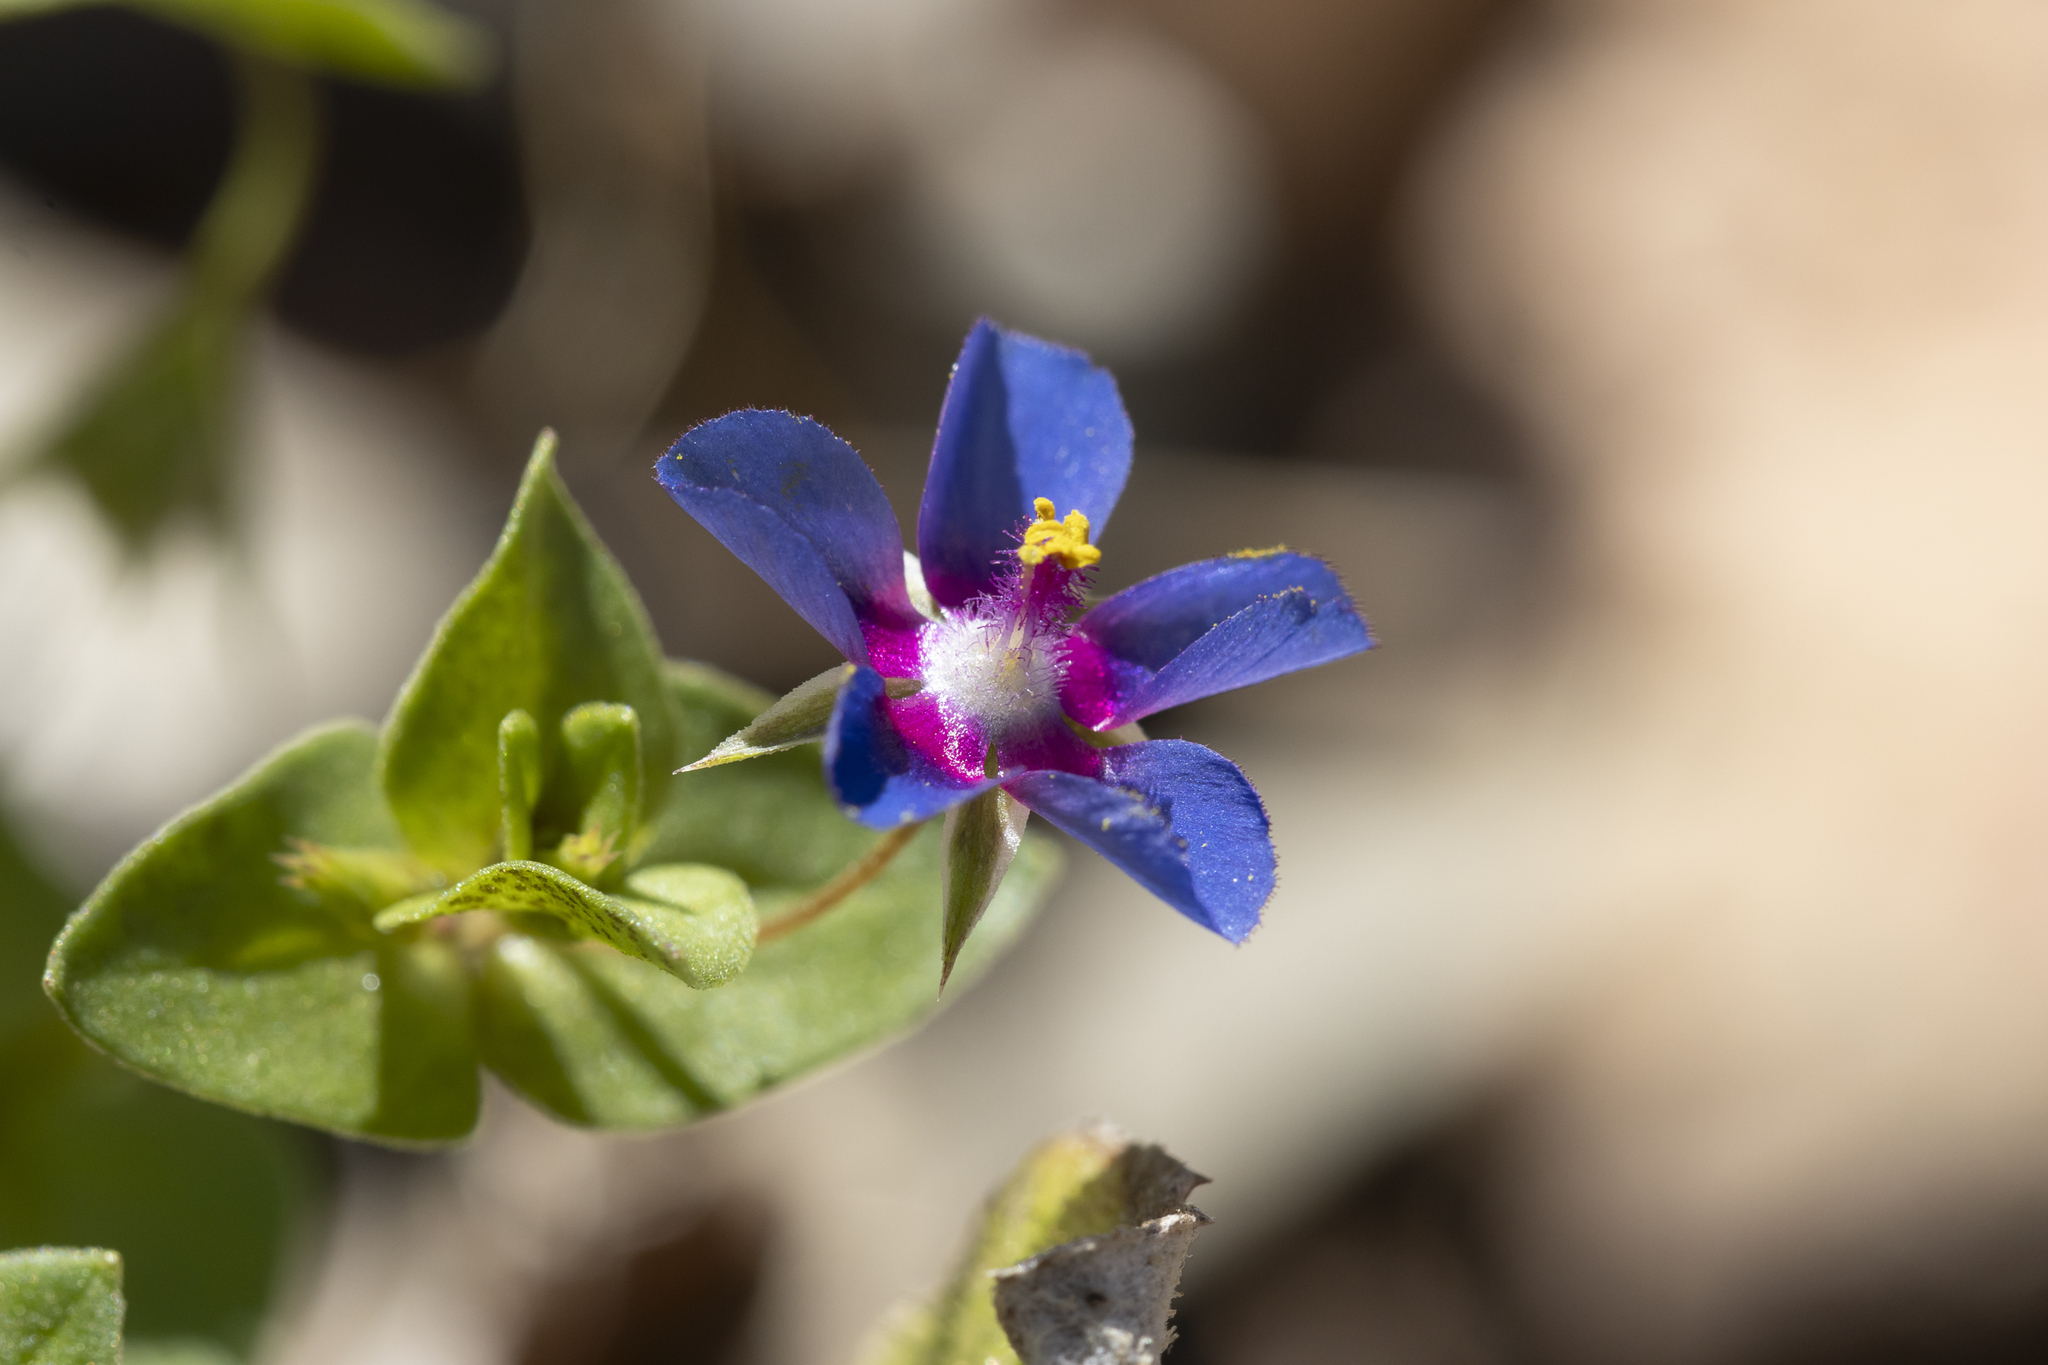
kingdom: Plantae
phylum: Tracheophyta
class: Magnoliopsida
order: Ericales
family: Primulaceae
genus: Lysimachia
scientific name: Lysimachia loeflingii
